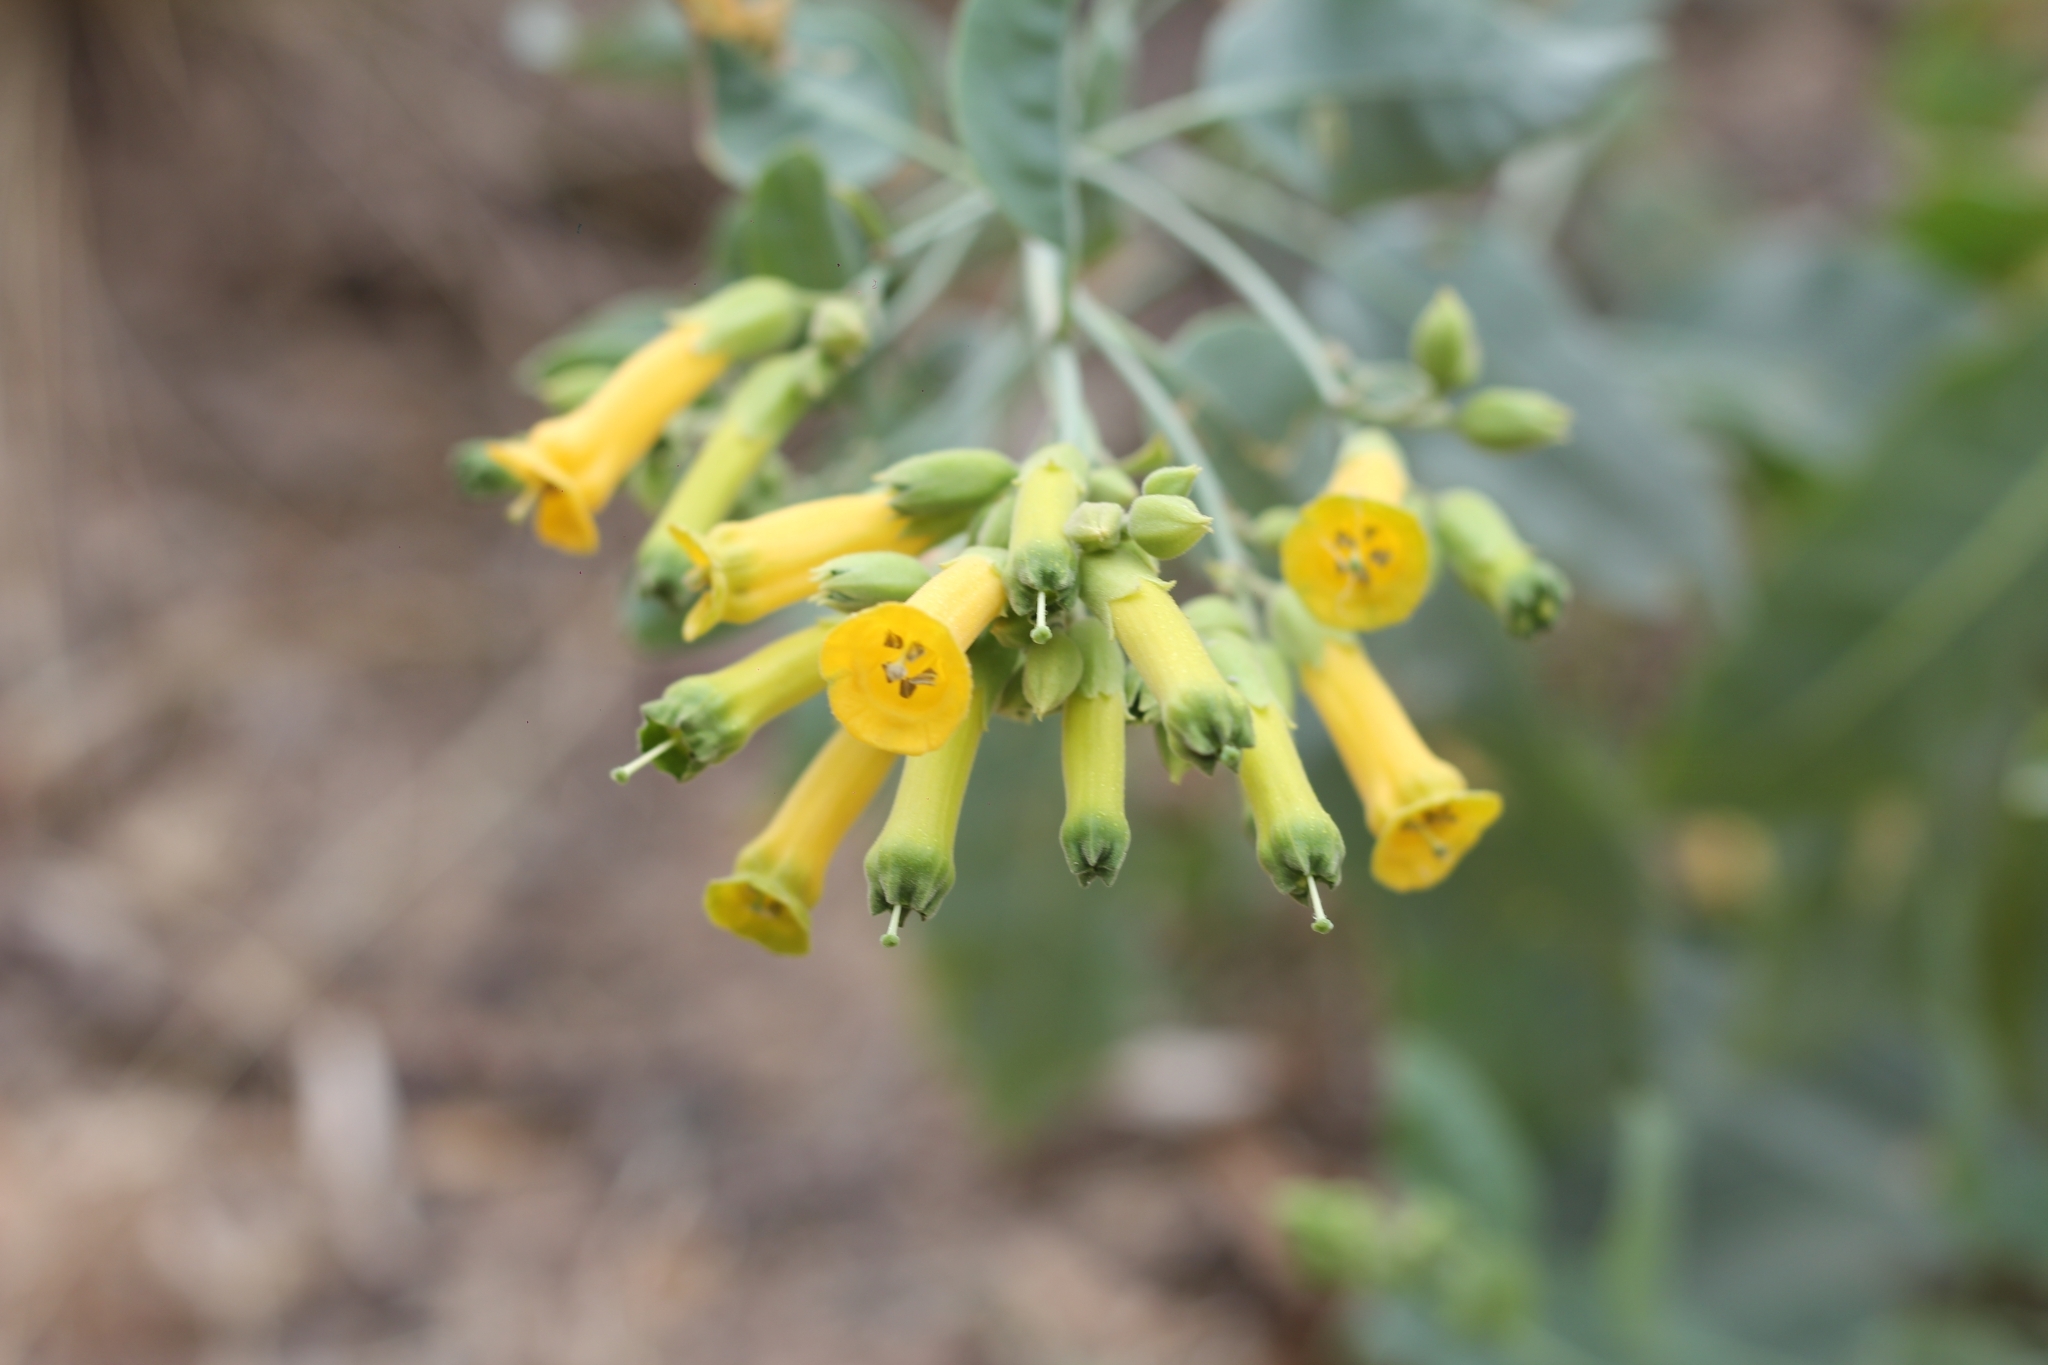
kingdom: Plantae
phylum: Tracheophyta
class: Magnoliopsida
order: Solanales
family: Solanaceae
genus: Nicotiana
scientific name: Nicotiana glauca
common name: Tree tobacco
